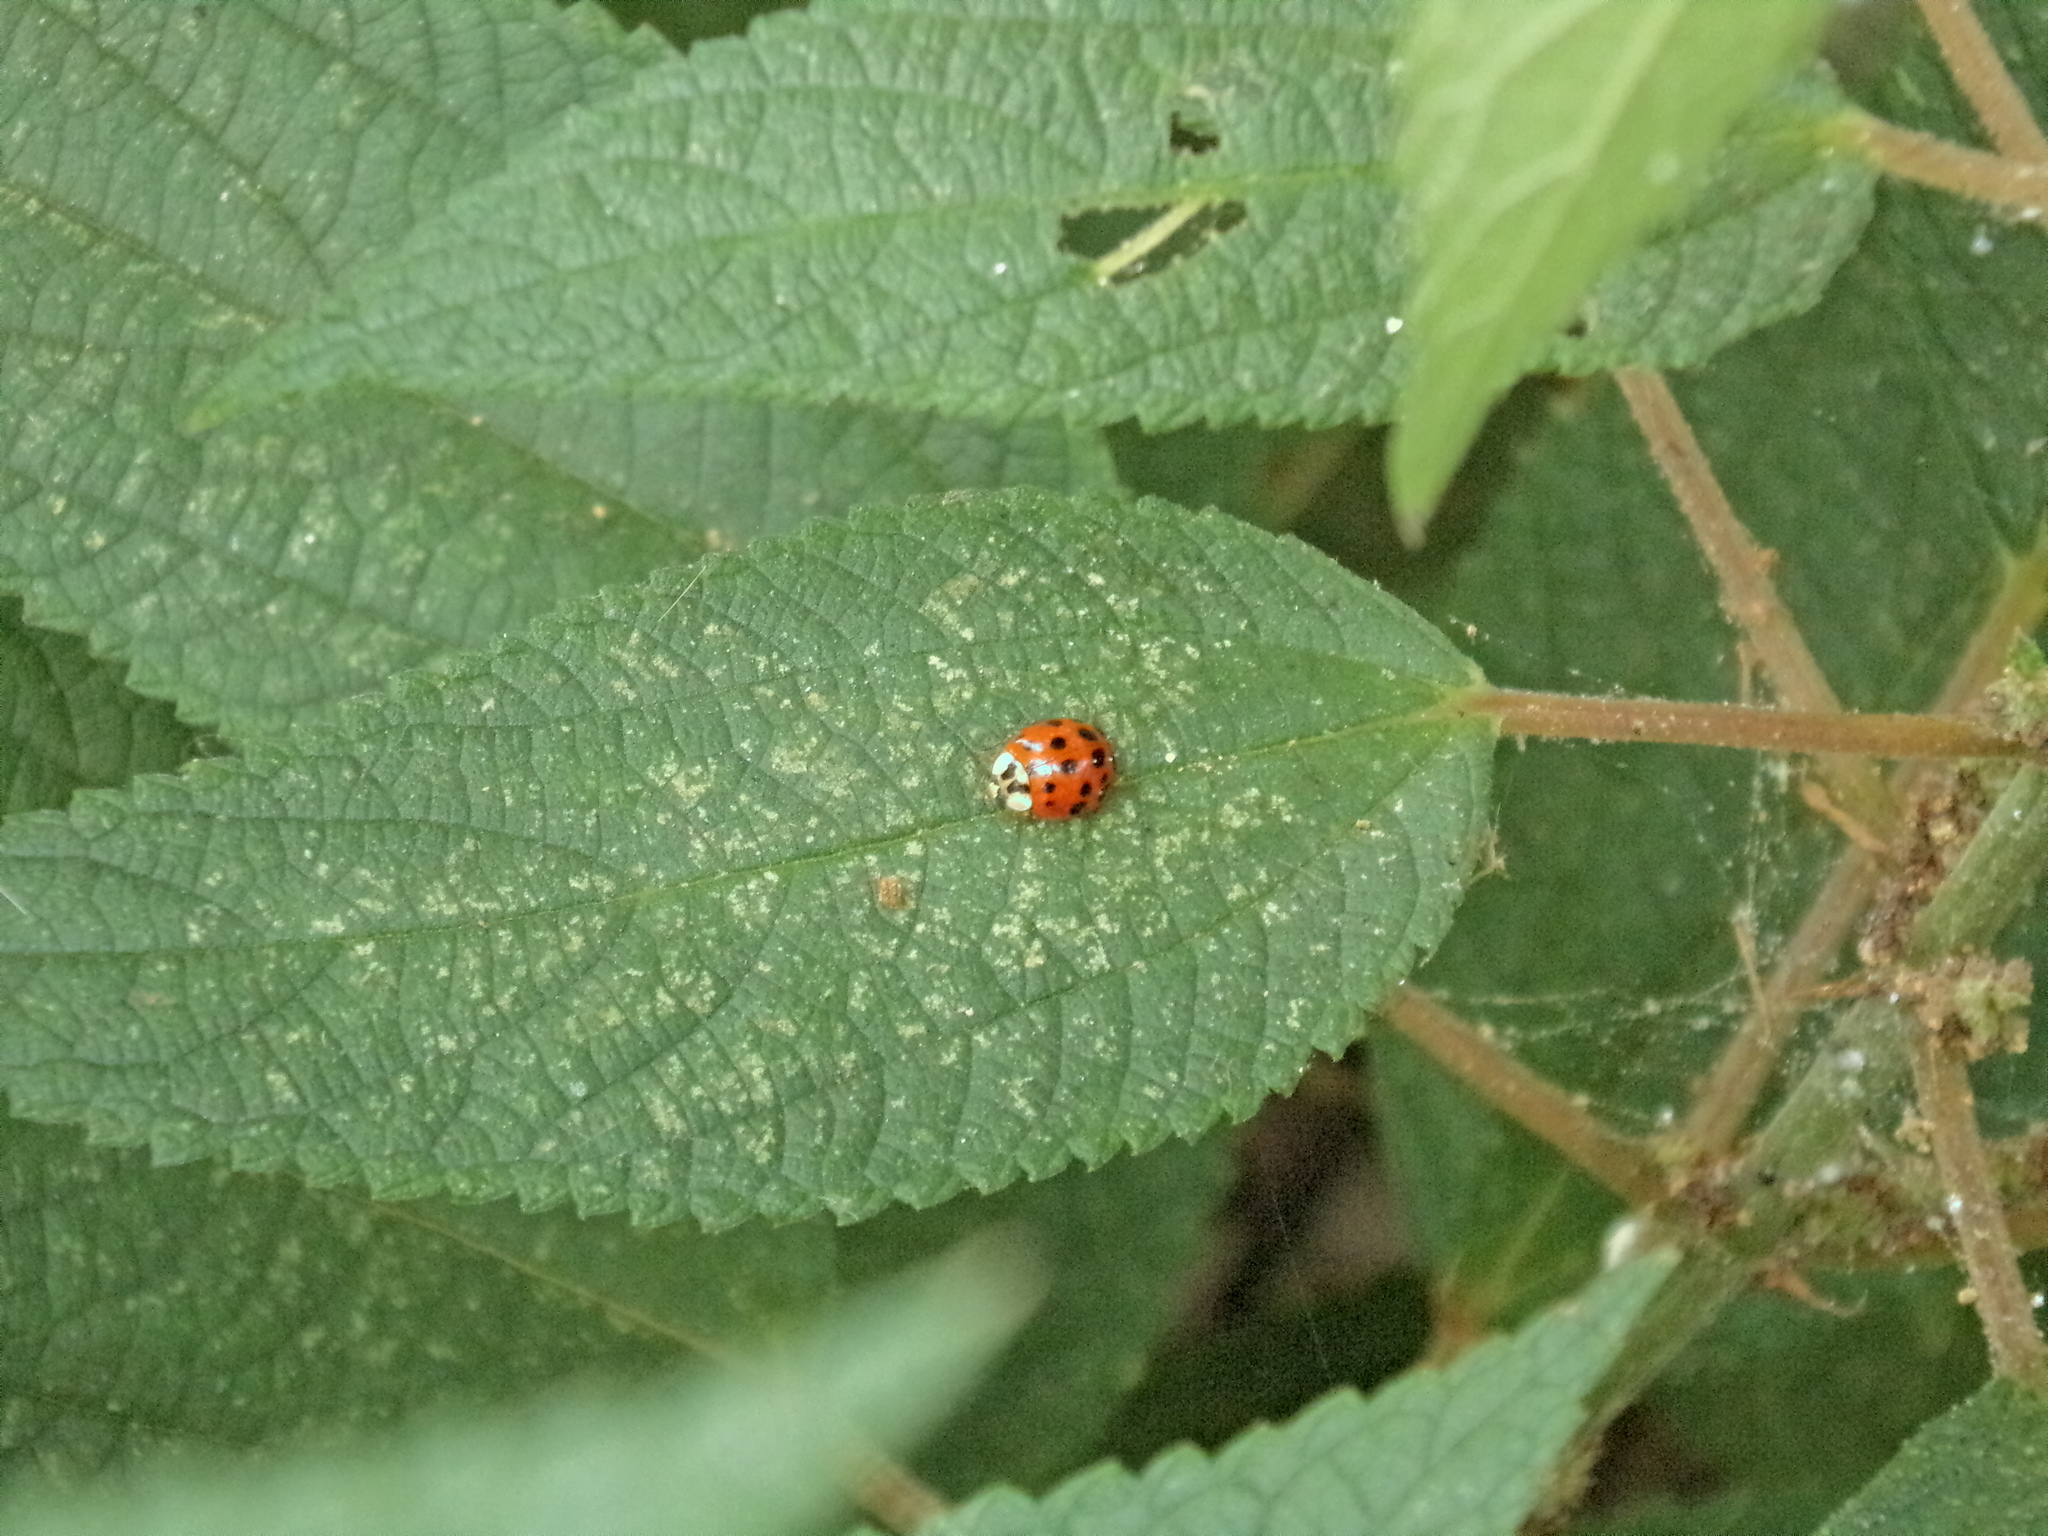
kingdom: Animalia
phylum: Arthropoda
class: Insecta
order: Coleoptera
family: Coccinellidae
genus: Harmonia
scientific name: Harmonia axyridis
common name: Harlequin ladybird
